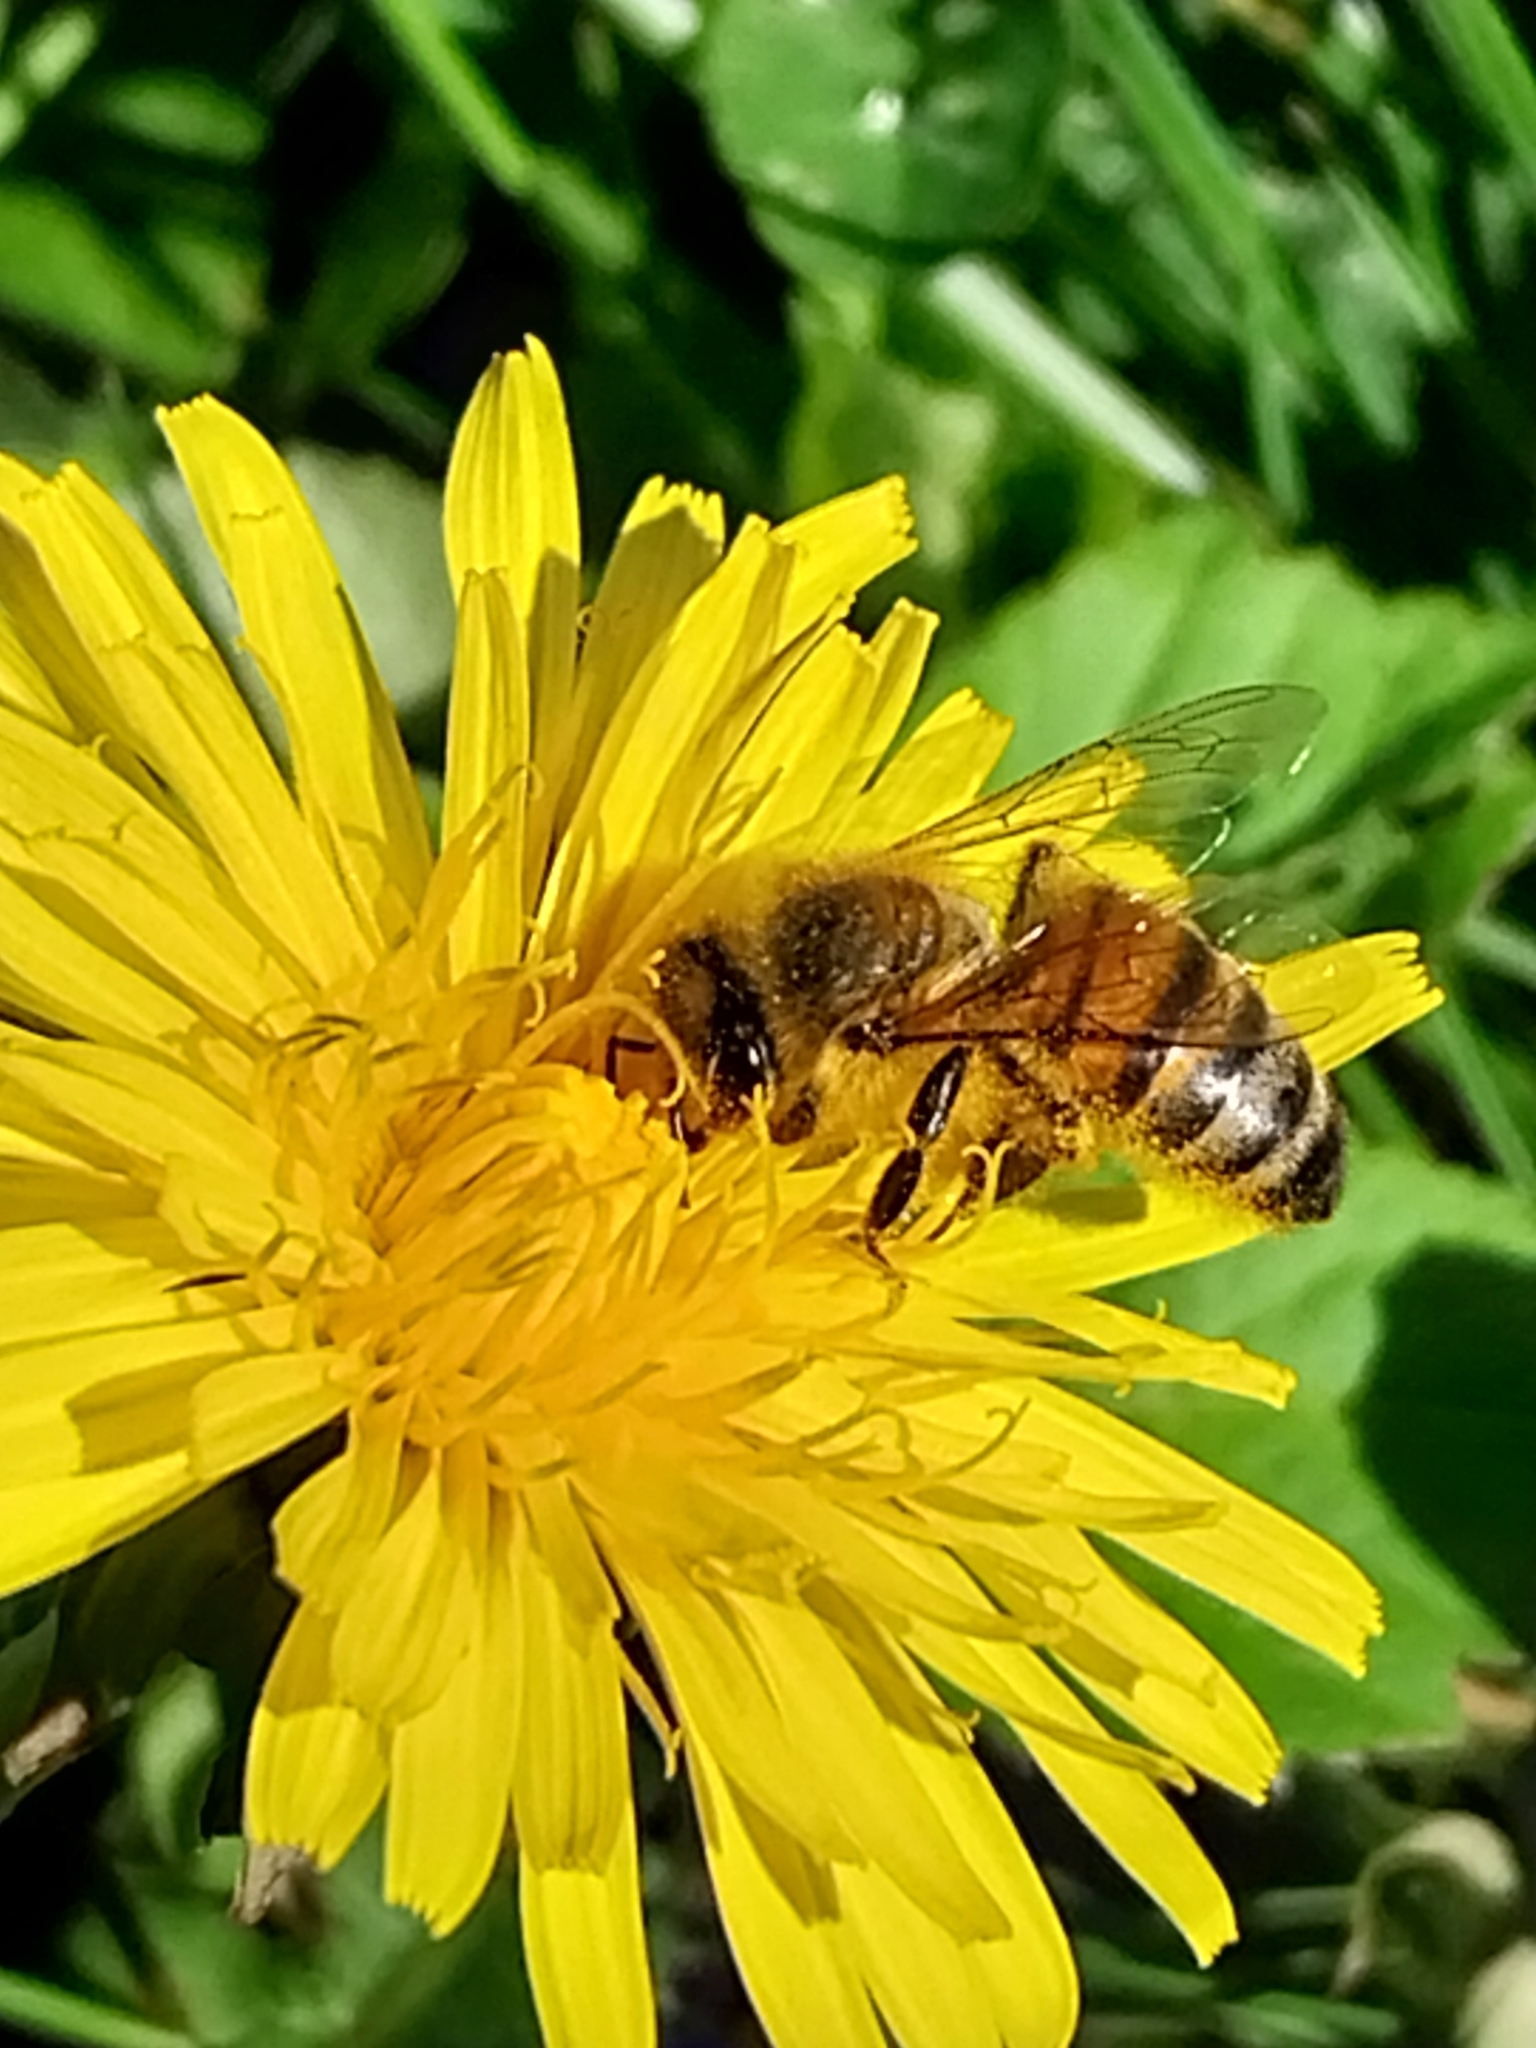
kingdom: Animalia
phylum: Arthropoda
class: Insecta
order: Hymenoptera
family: Apidae
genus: Apis
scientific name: Apis mellifera
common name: Honey bee
